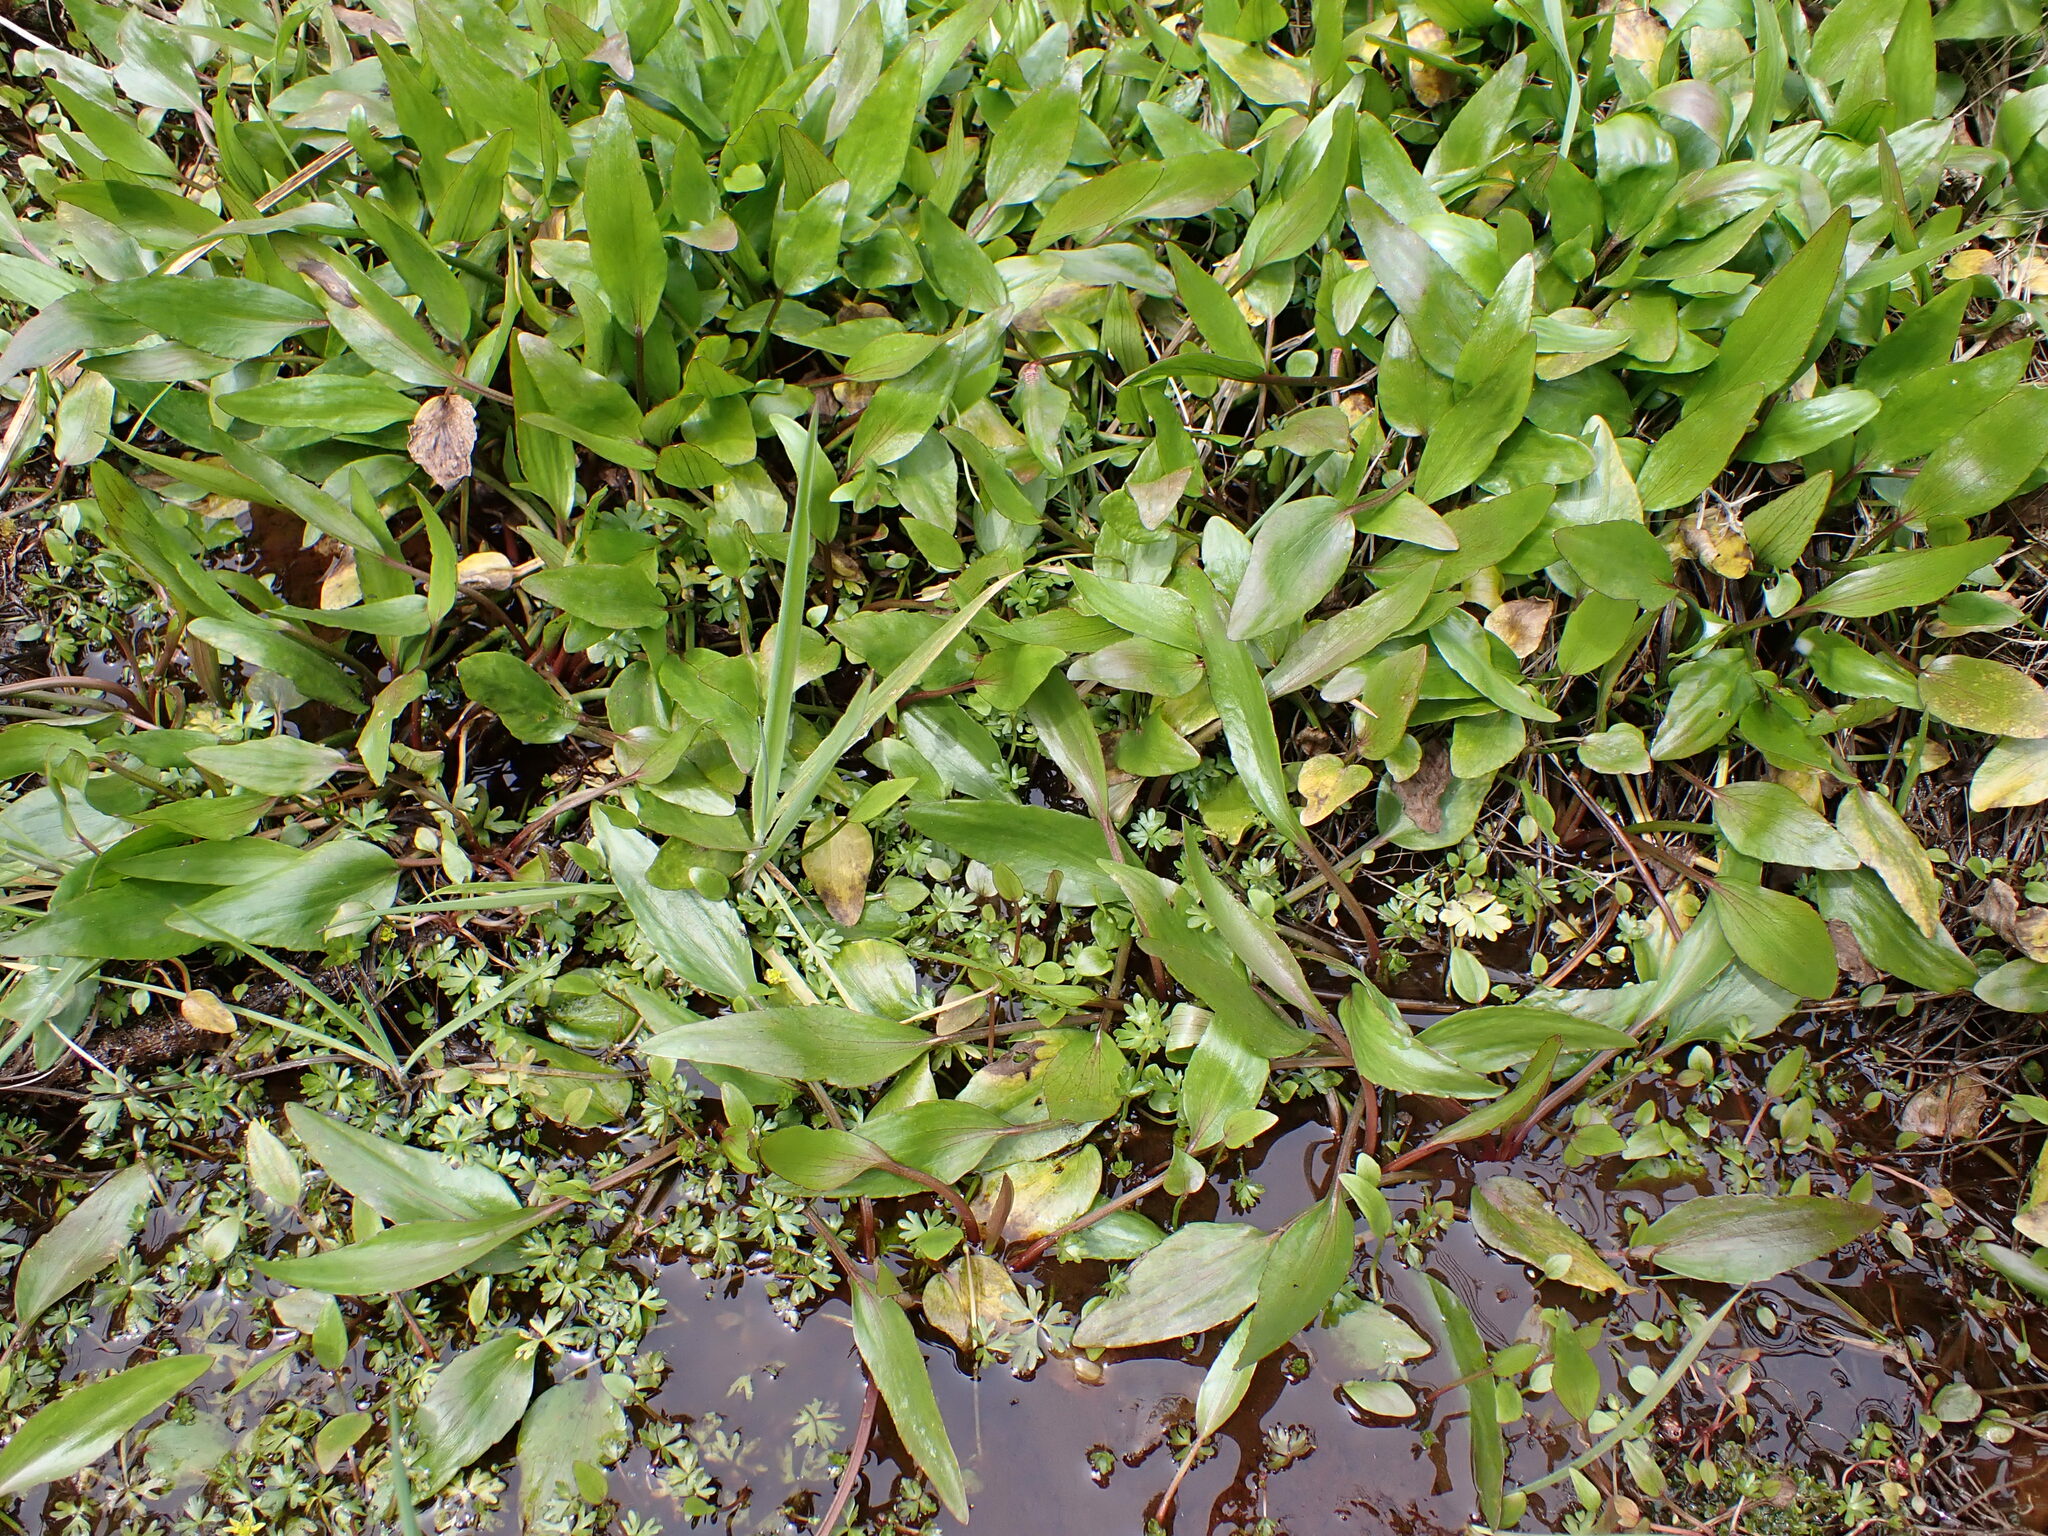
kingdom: Plantae
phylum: Tracheophyta
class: Magnoliopsida
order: Ranunculales
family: Ranunculaceae
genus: Ranunculus
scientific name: Ranunculus flammula
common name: Lesser spearwort
